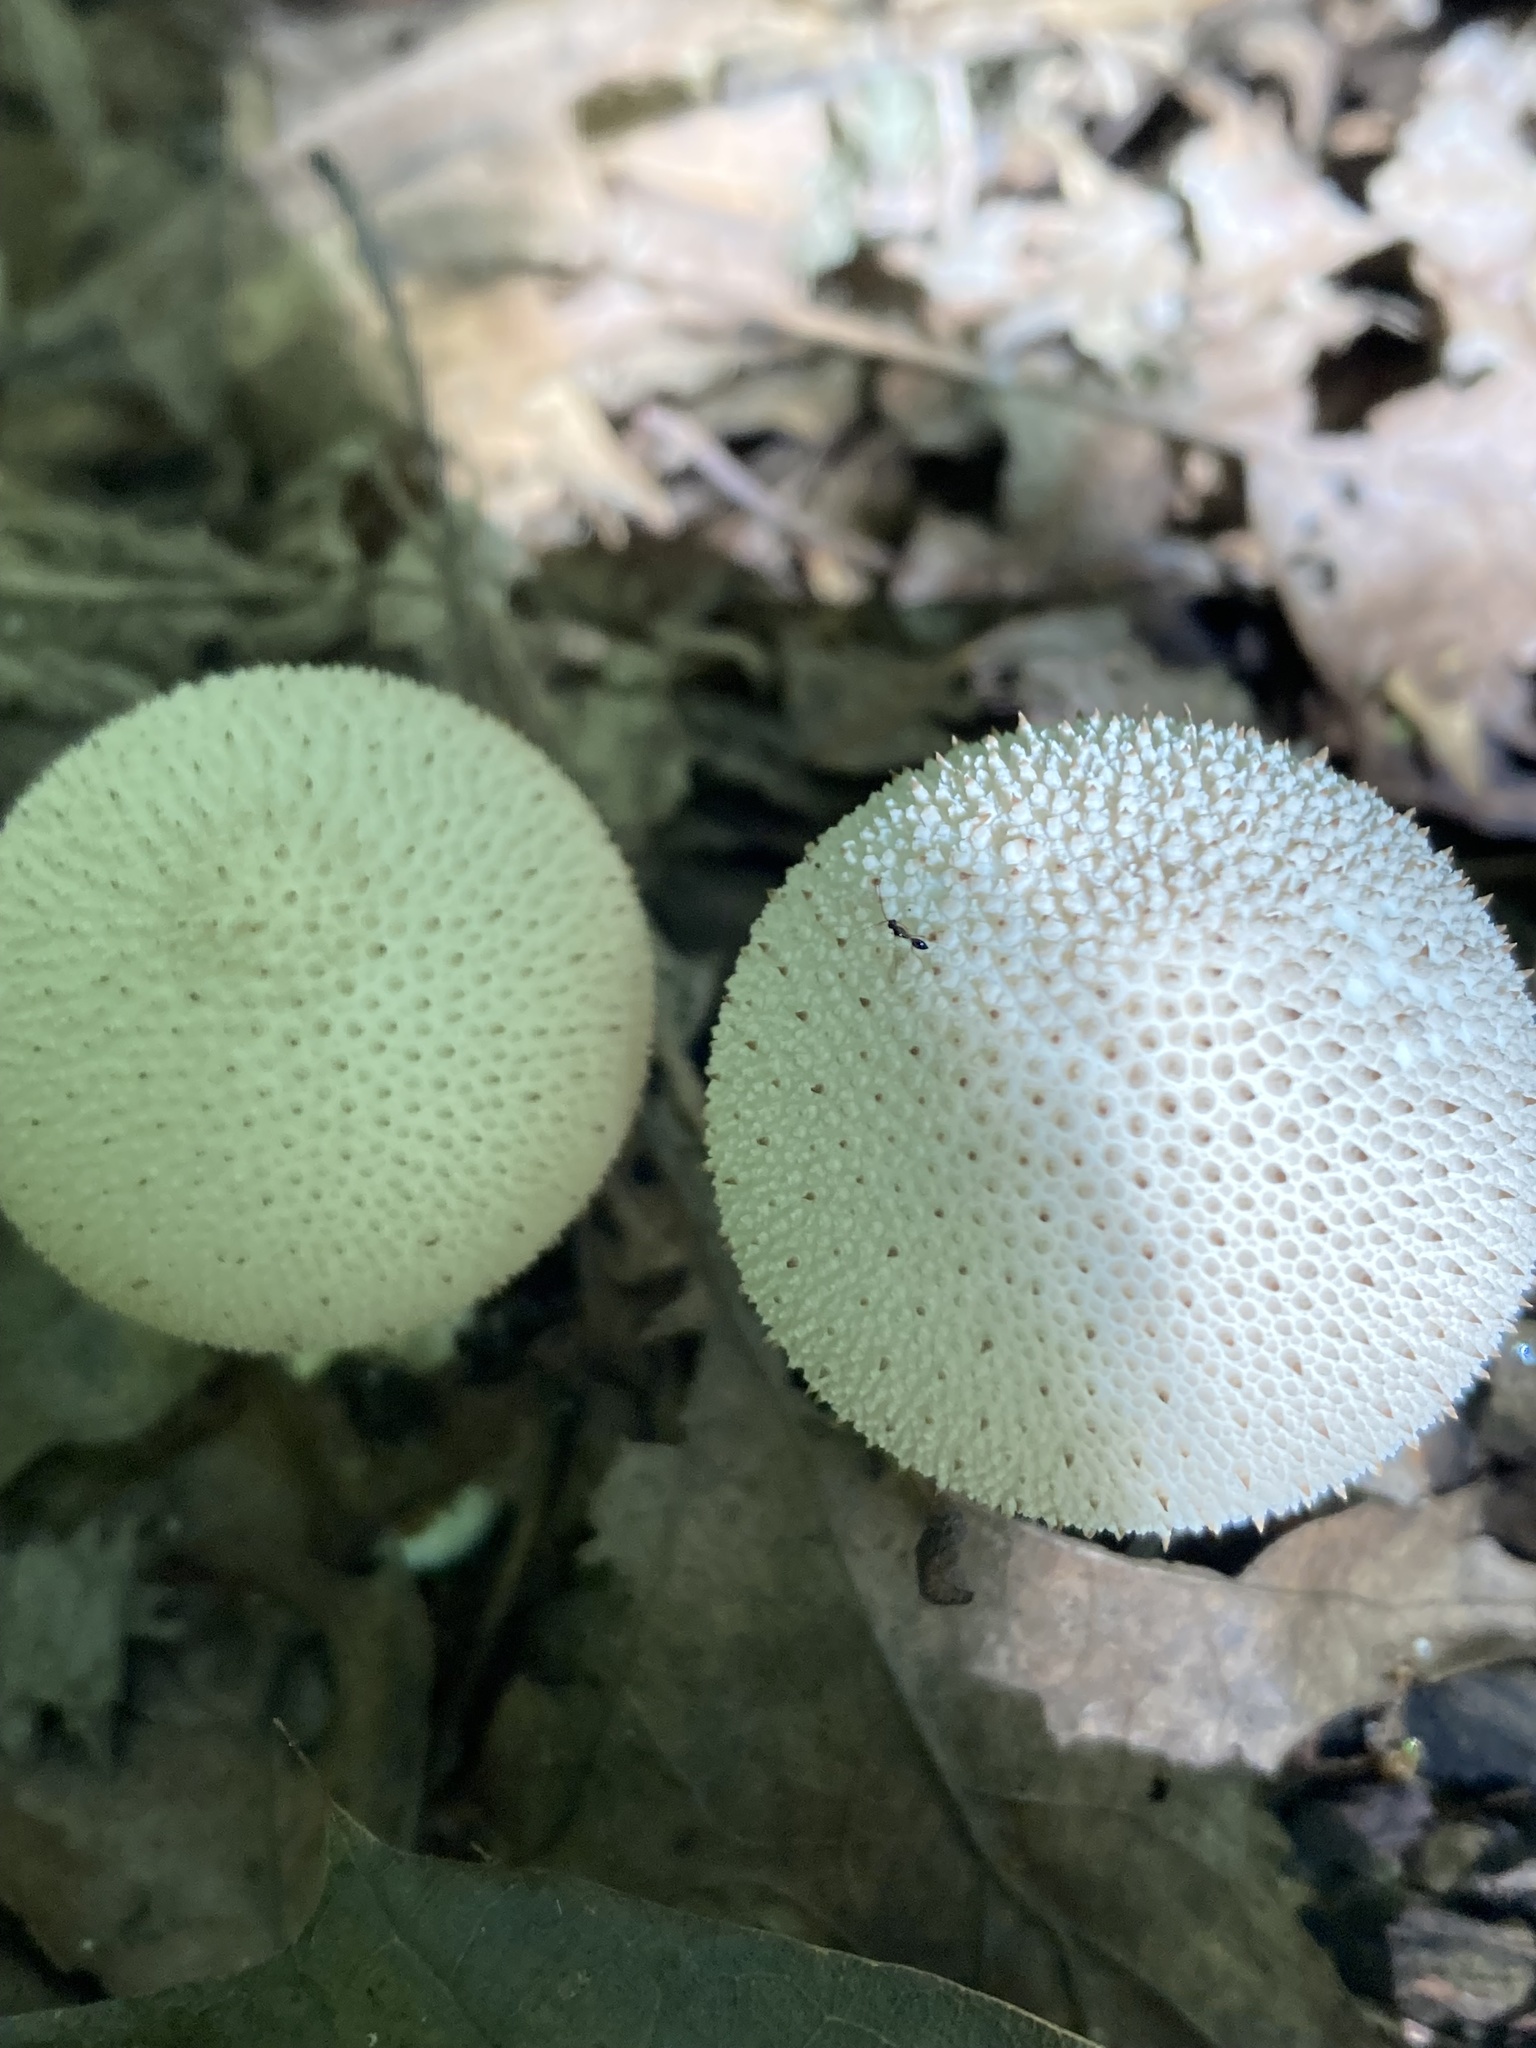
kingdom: Fungi
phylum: Basidiomycota
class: Agaricomycetes
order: Agaricales
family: Lycoperdaceae
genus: Lycoperdon
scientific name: Lycoperdon perlatum
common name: Common puffball
